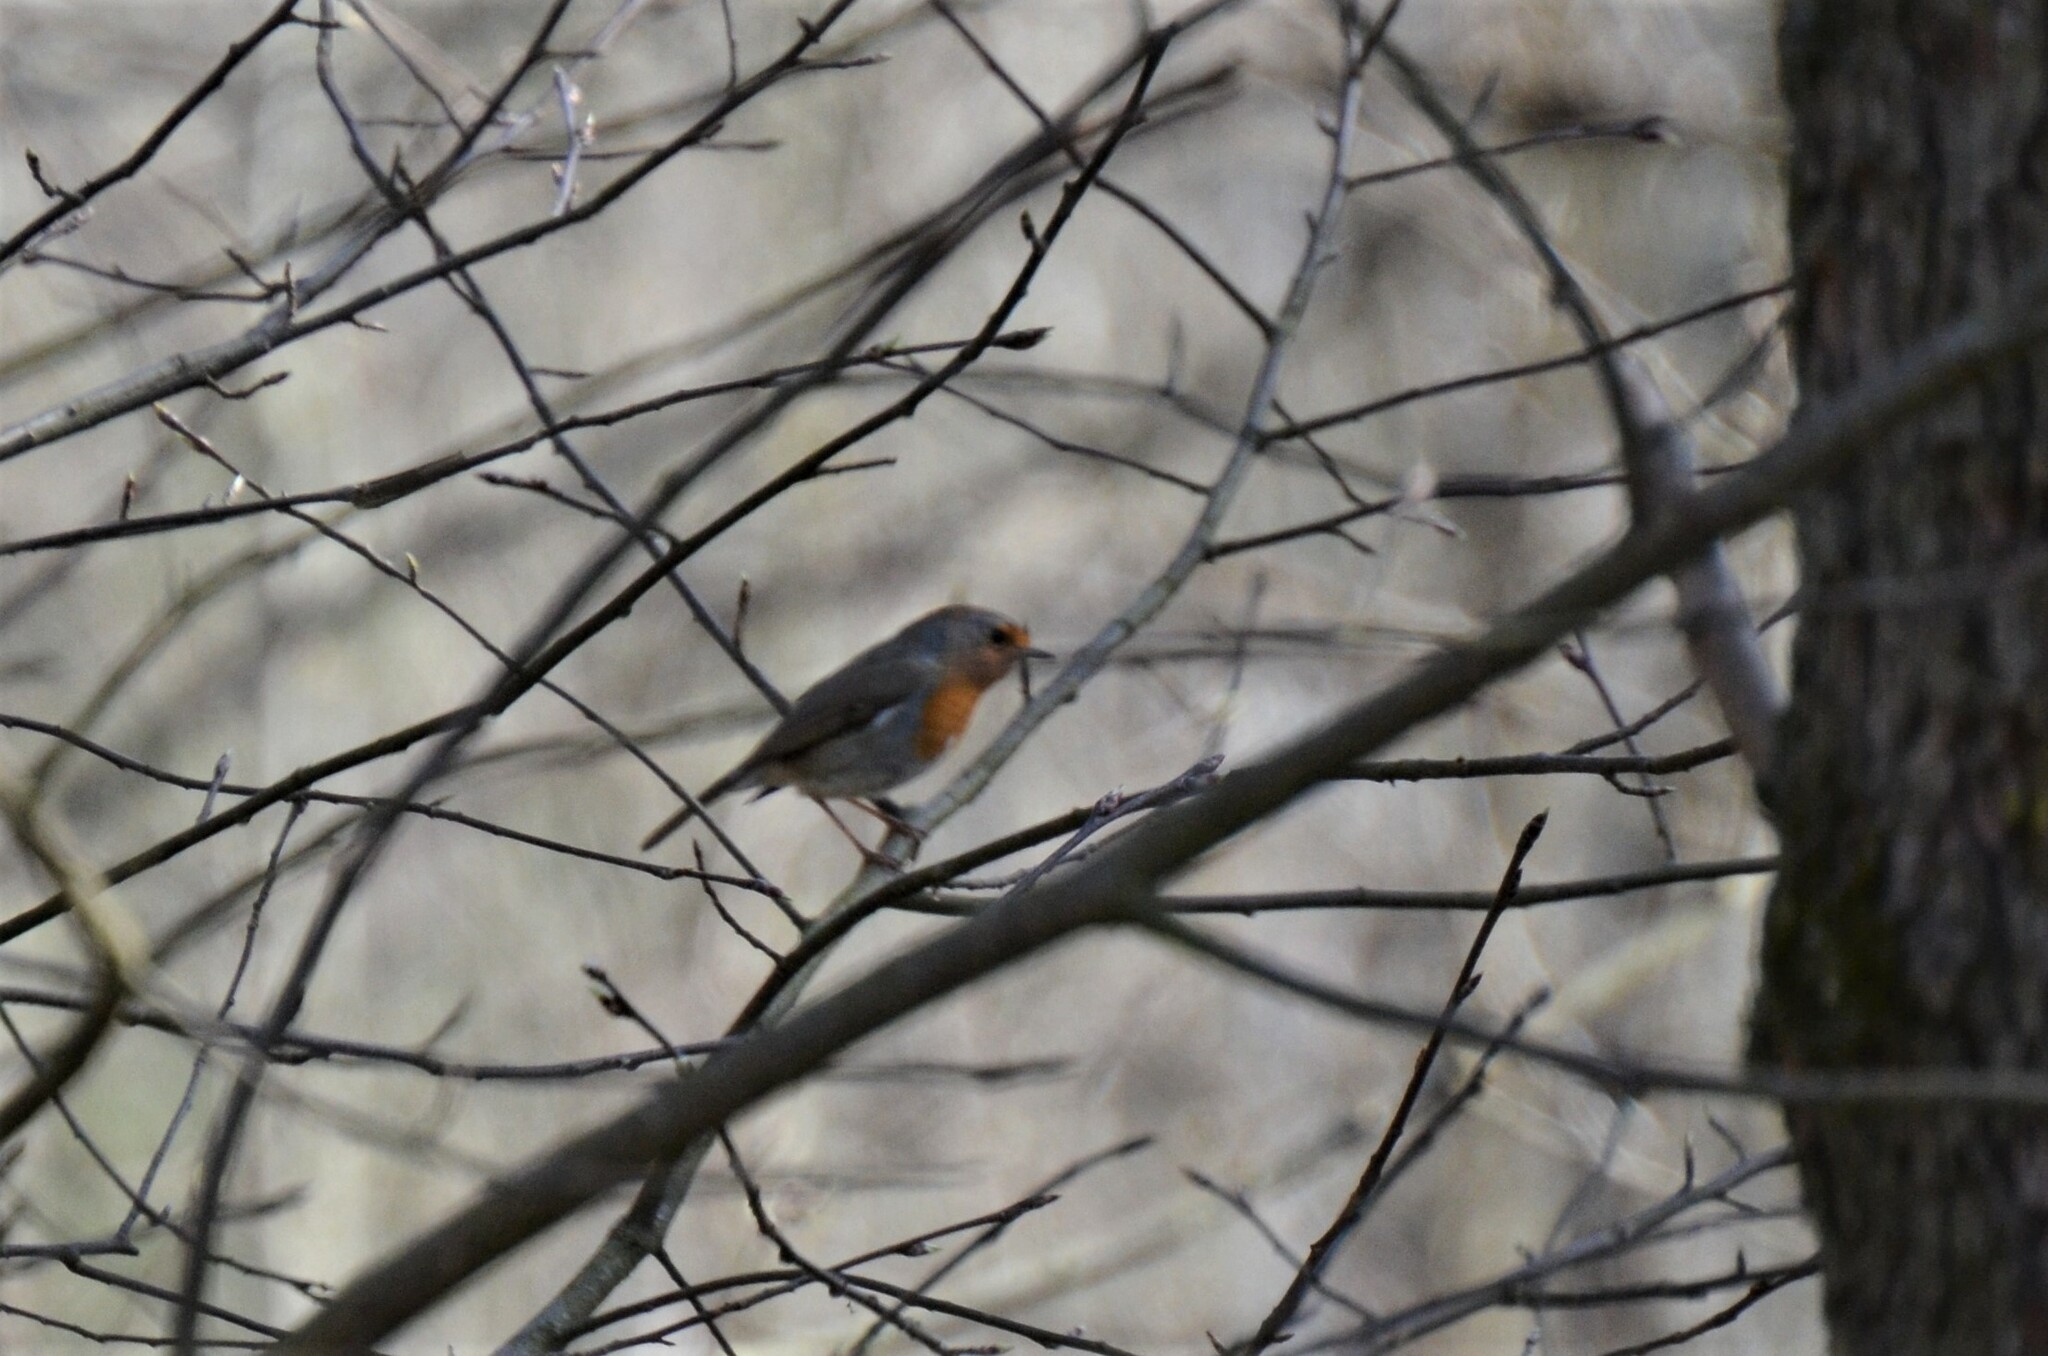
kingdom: Animalia
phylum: Chordata
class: Aves
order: Passeriformes
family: Muscicapidae
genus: Erithacus
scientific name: Erithacus rubecula
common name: European robin
